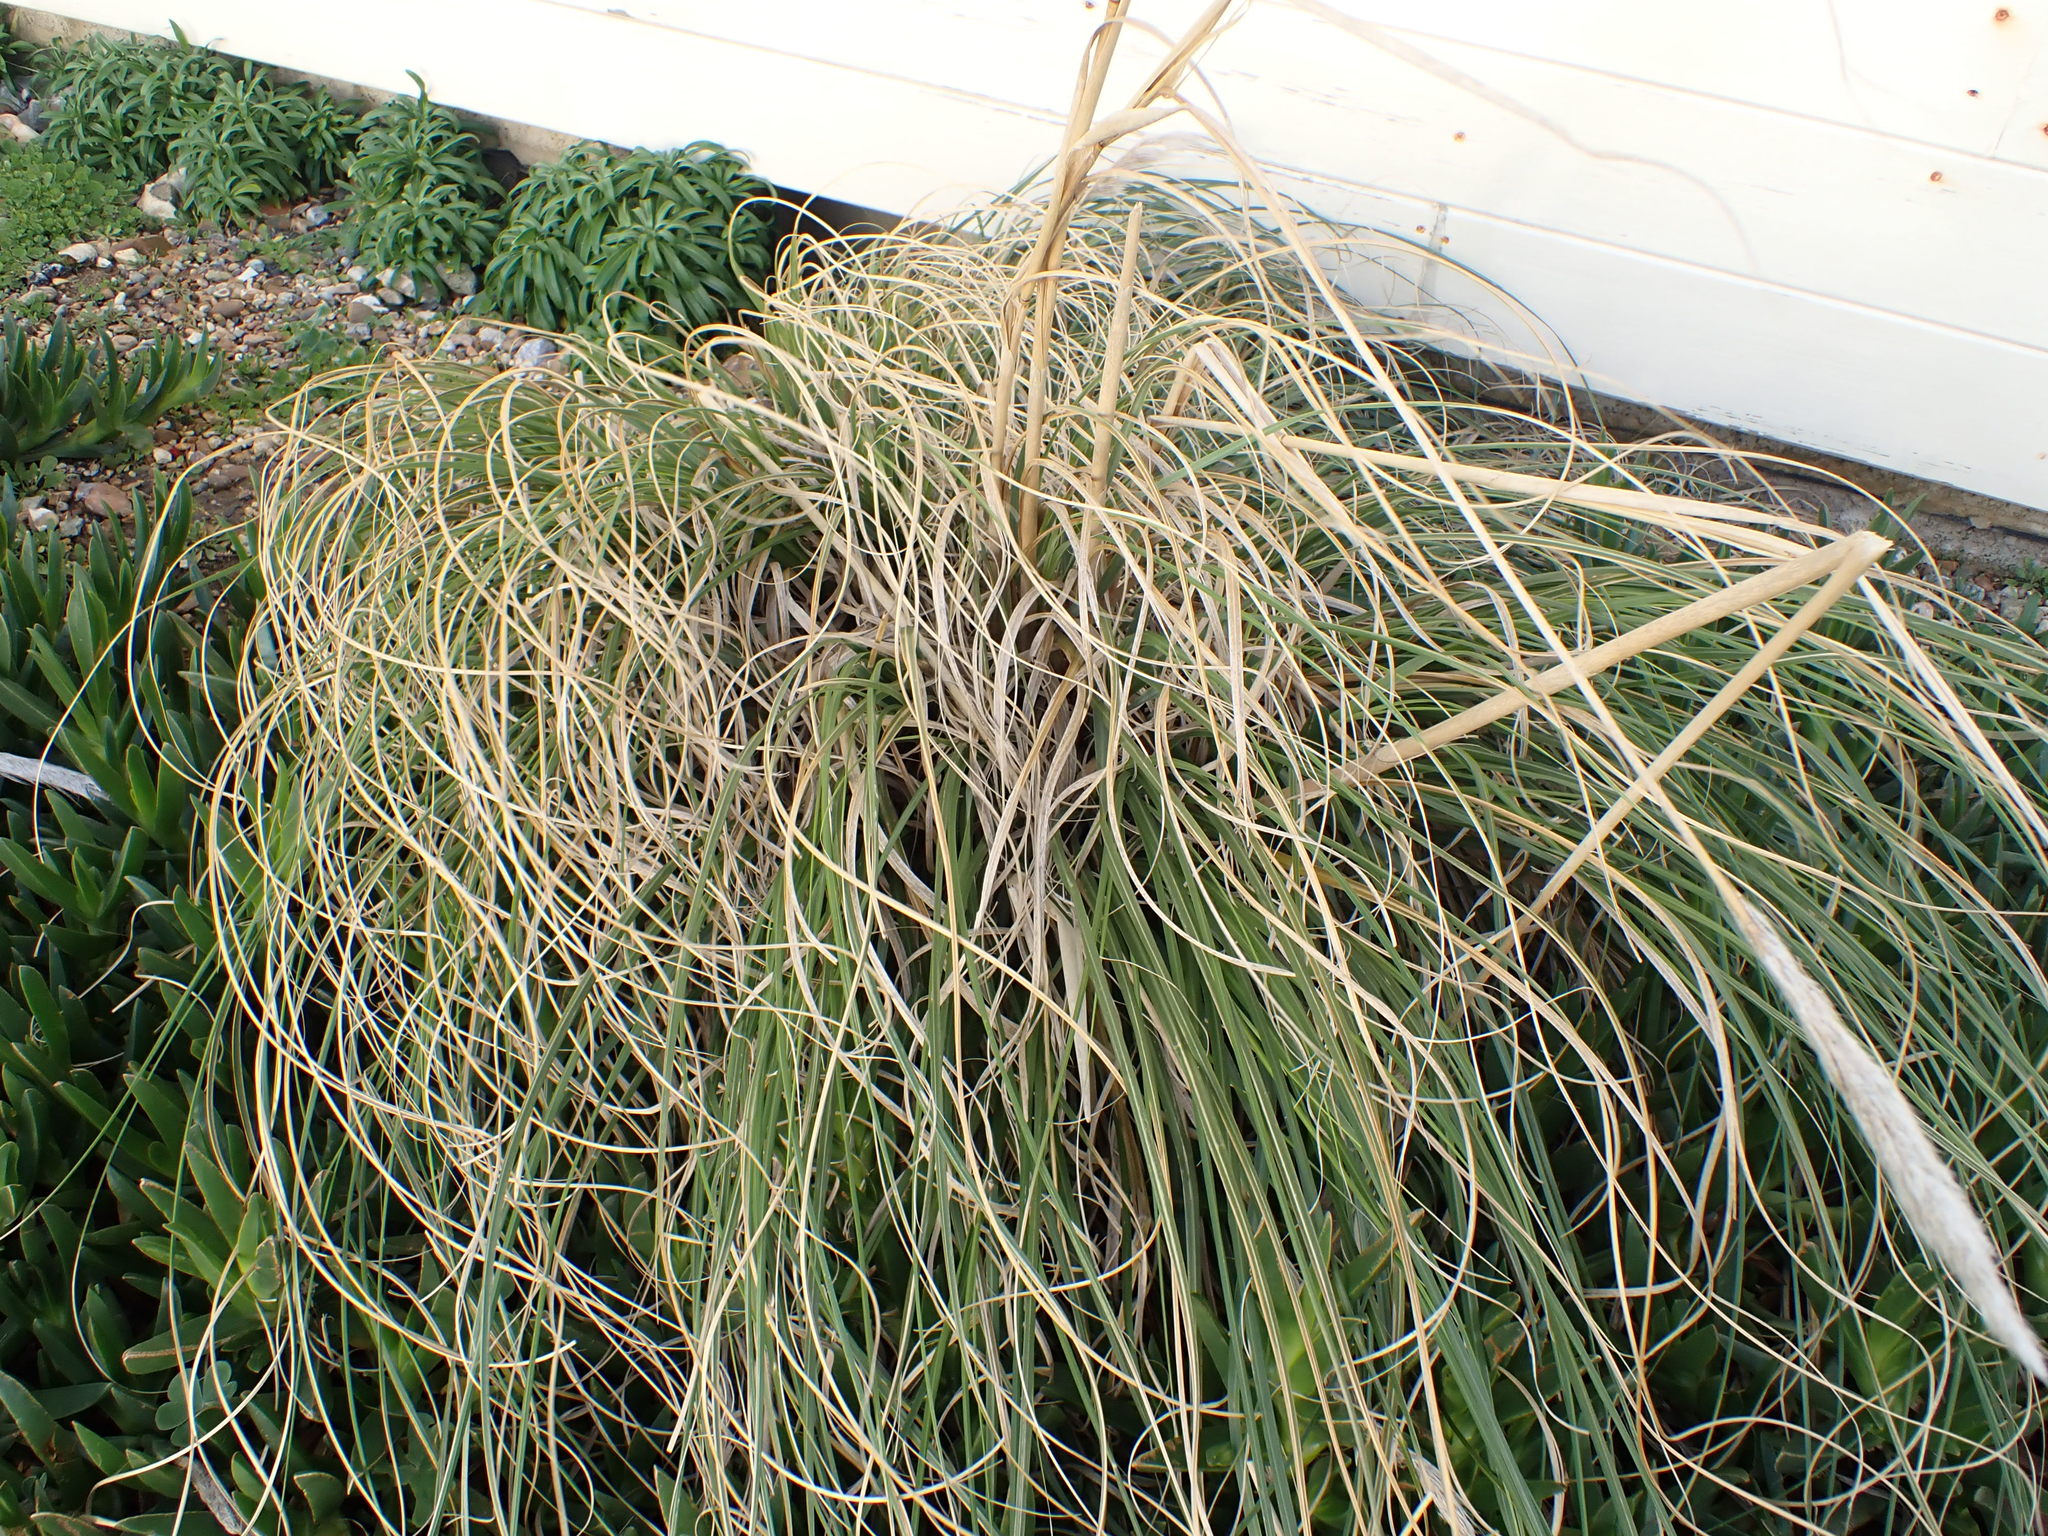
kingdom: Plantae
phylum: Tracheophyta
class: Liliopsida
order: Poales
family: Poaceae
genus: Cortaderia
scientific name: Cortaderia selloana
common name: Uruguayan pampas grass
